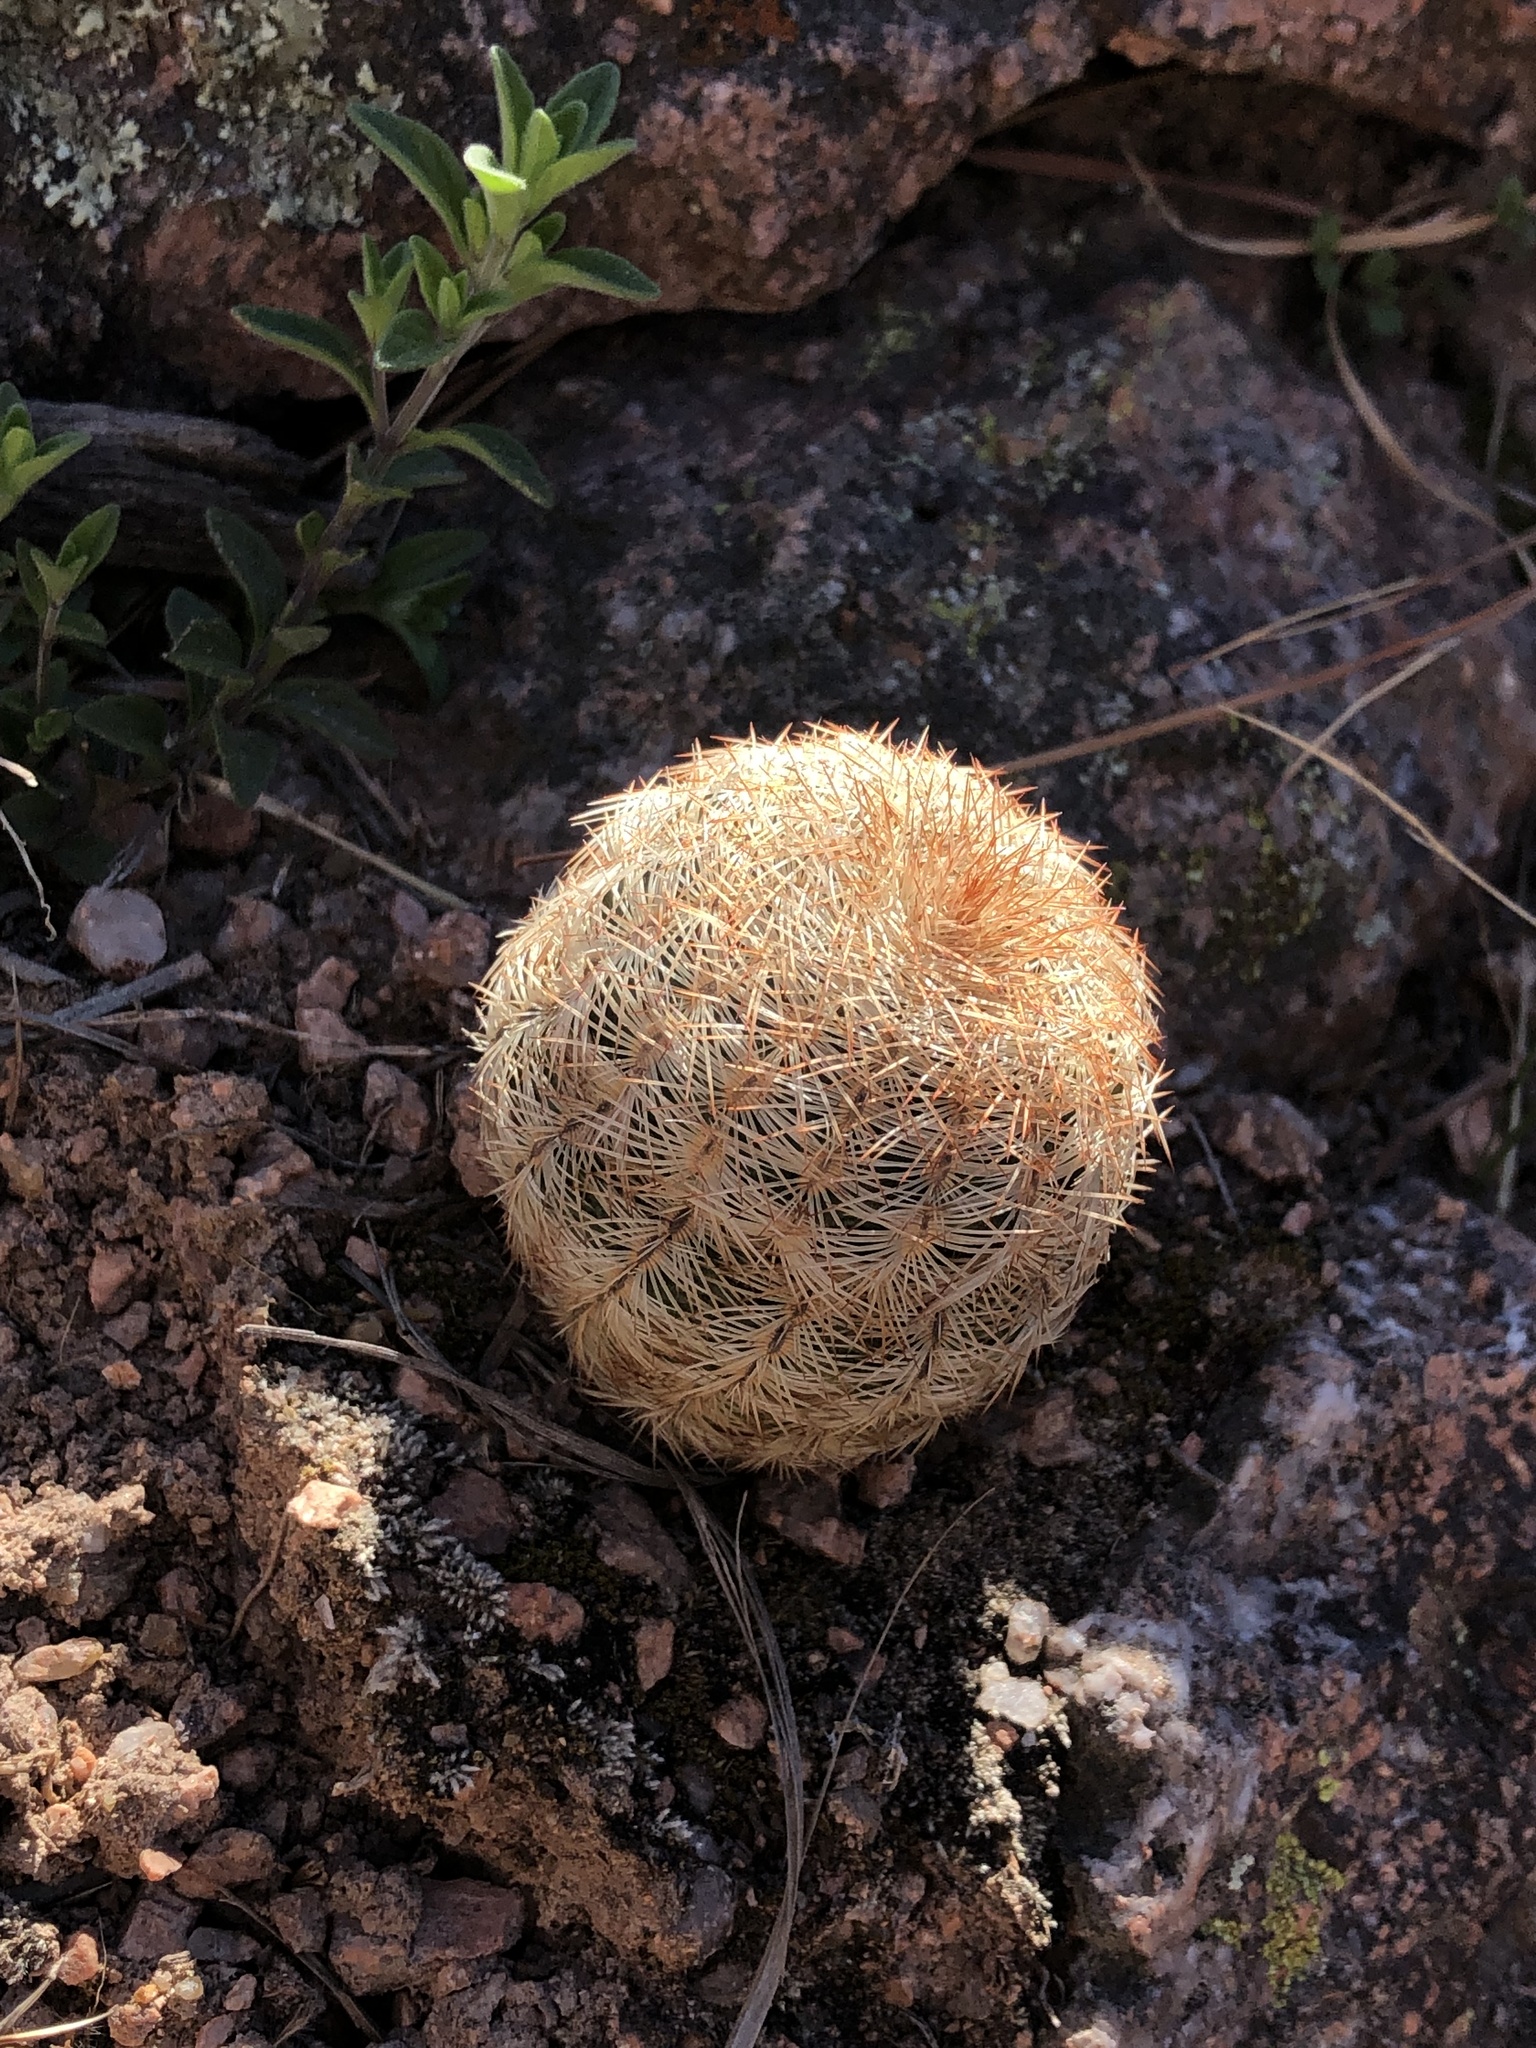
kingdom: Plantae
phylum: Tracheophyta
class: Magnoliopsida
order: Caryophyllales
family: Cactaceae
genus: Echinocereus
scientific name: Echinocereus reichenbachii
